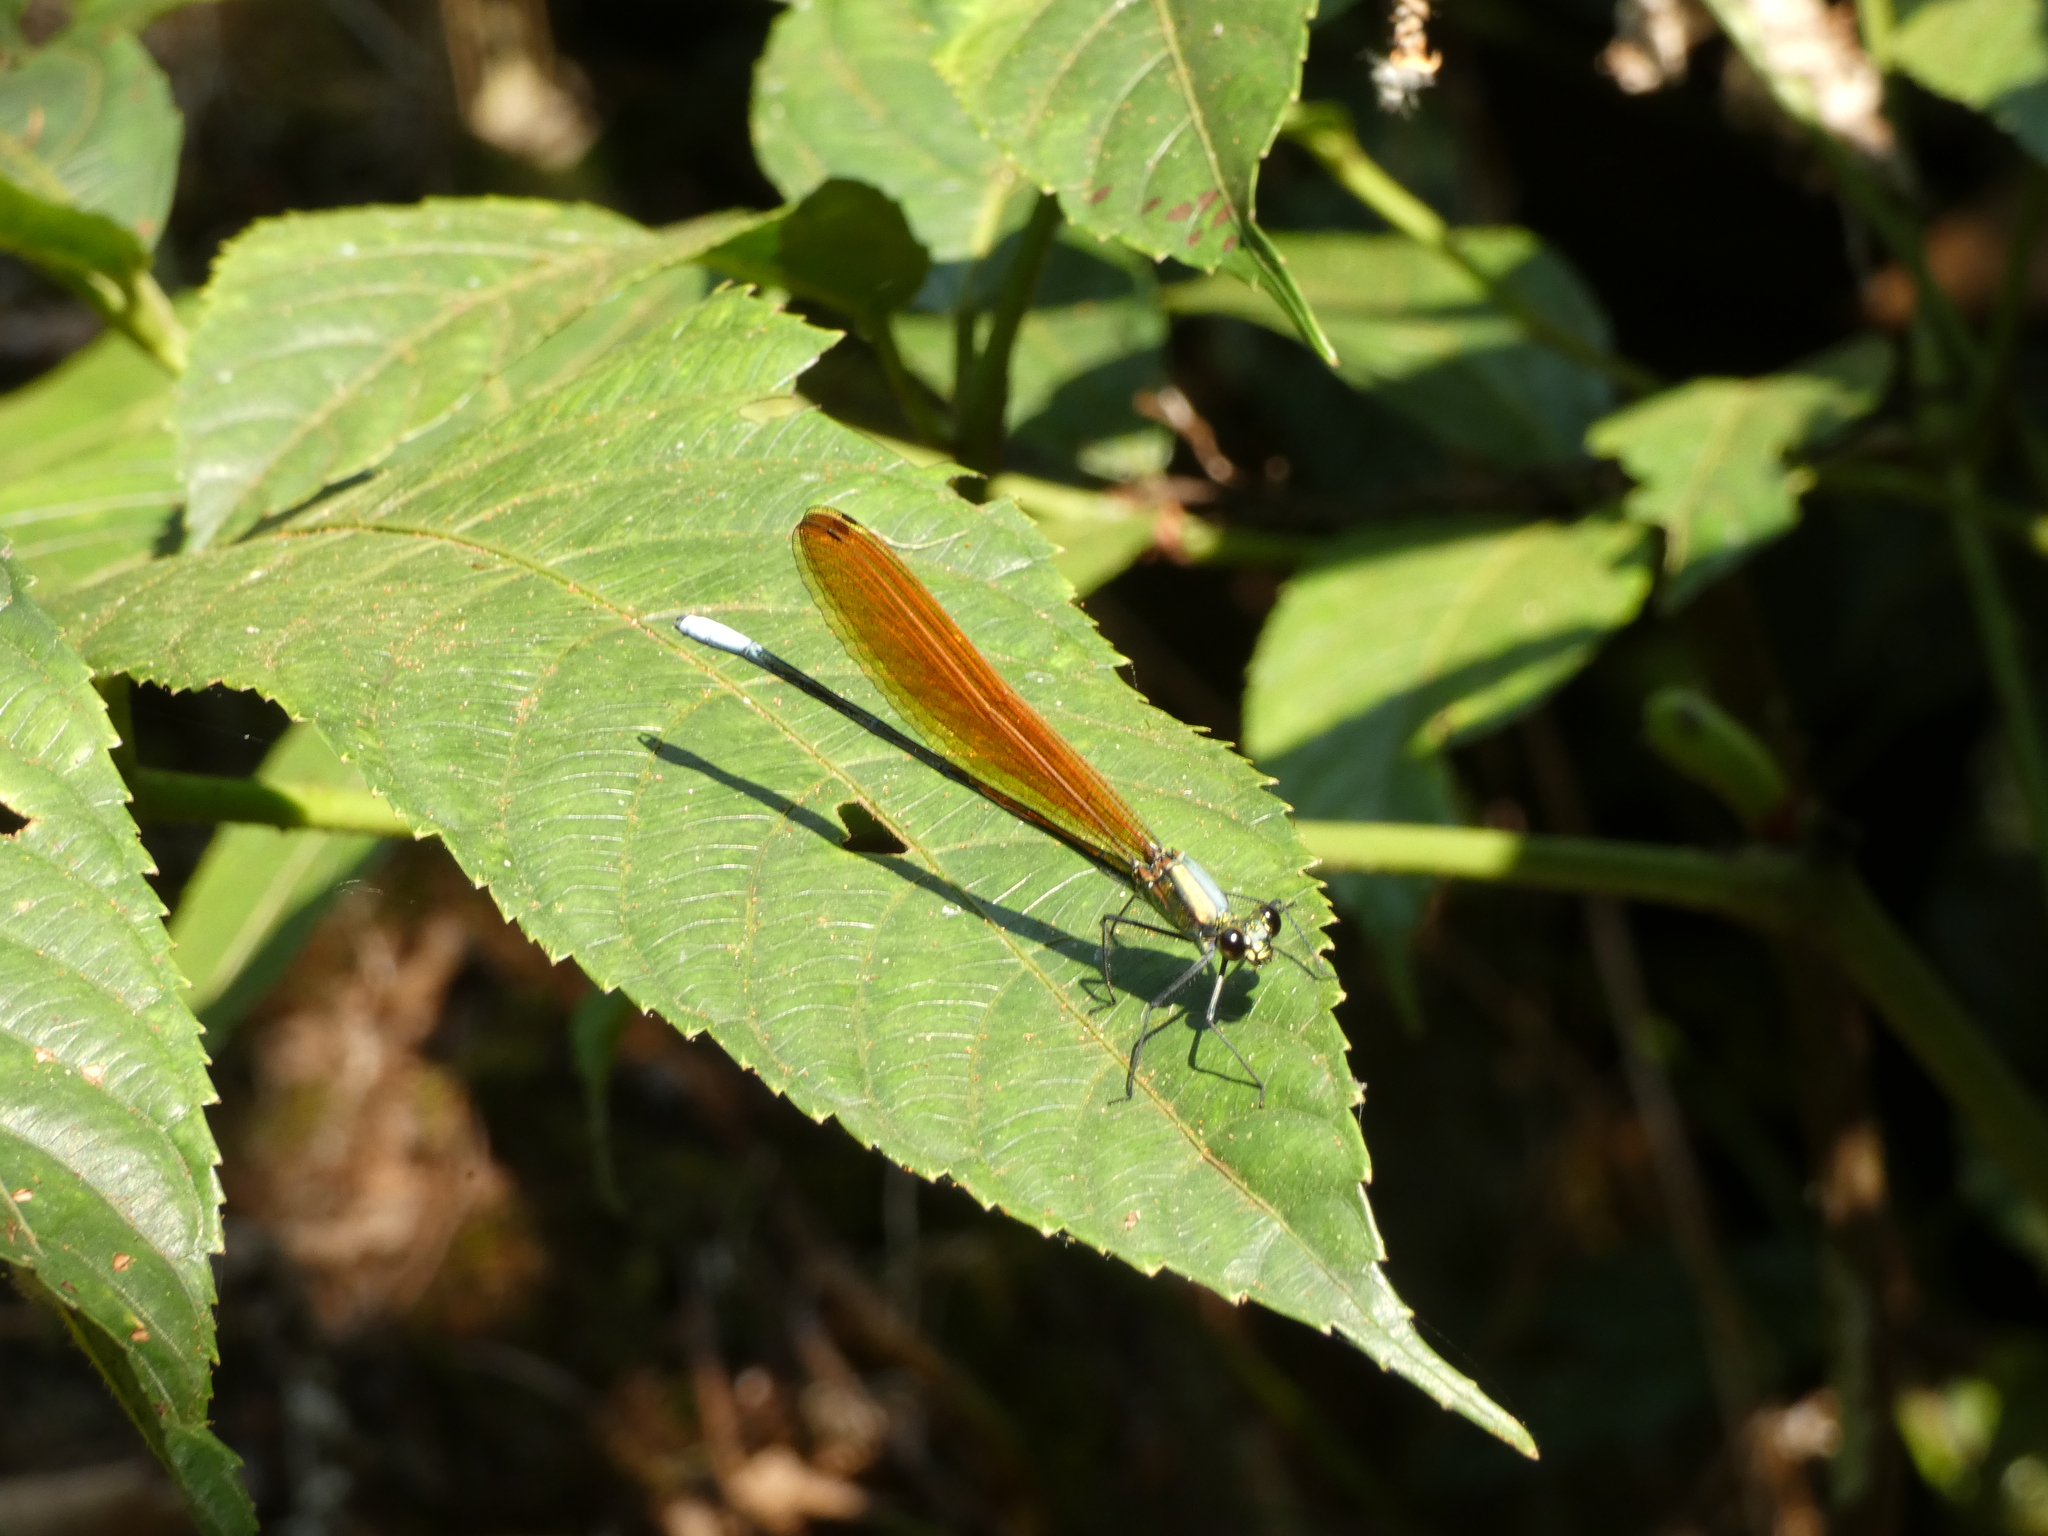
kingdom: Animalia
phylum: Arthropoda
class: Insecta
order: Odonata
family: Calopterygidae
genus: Mnais
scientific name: Mnais andersoni
